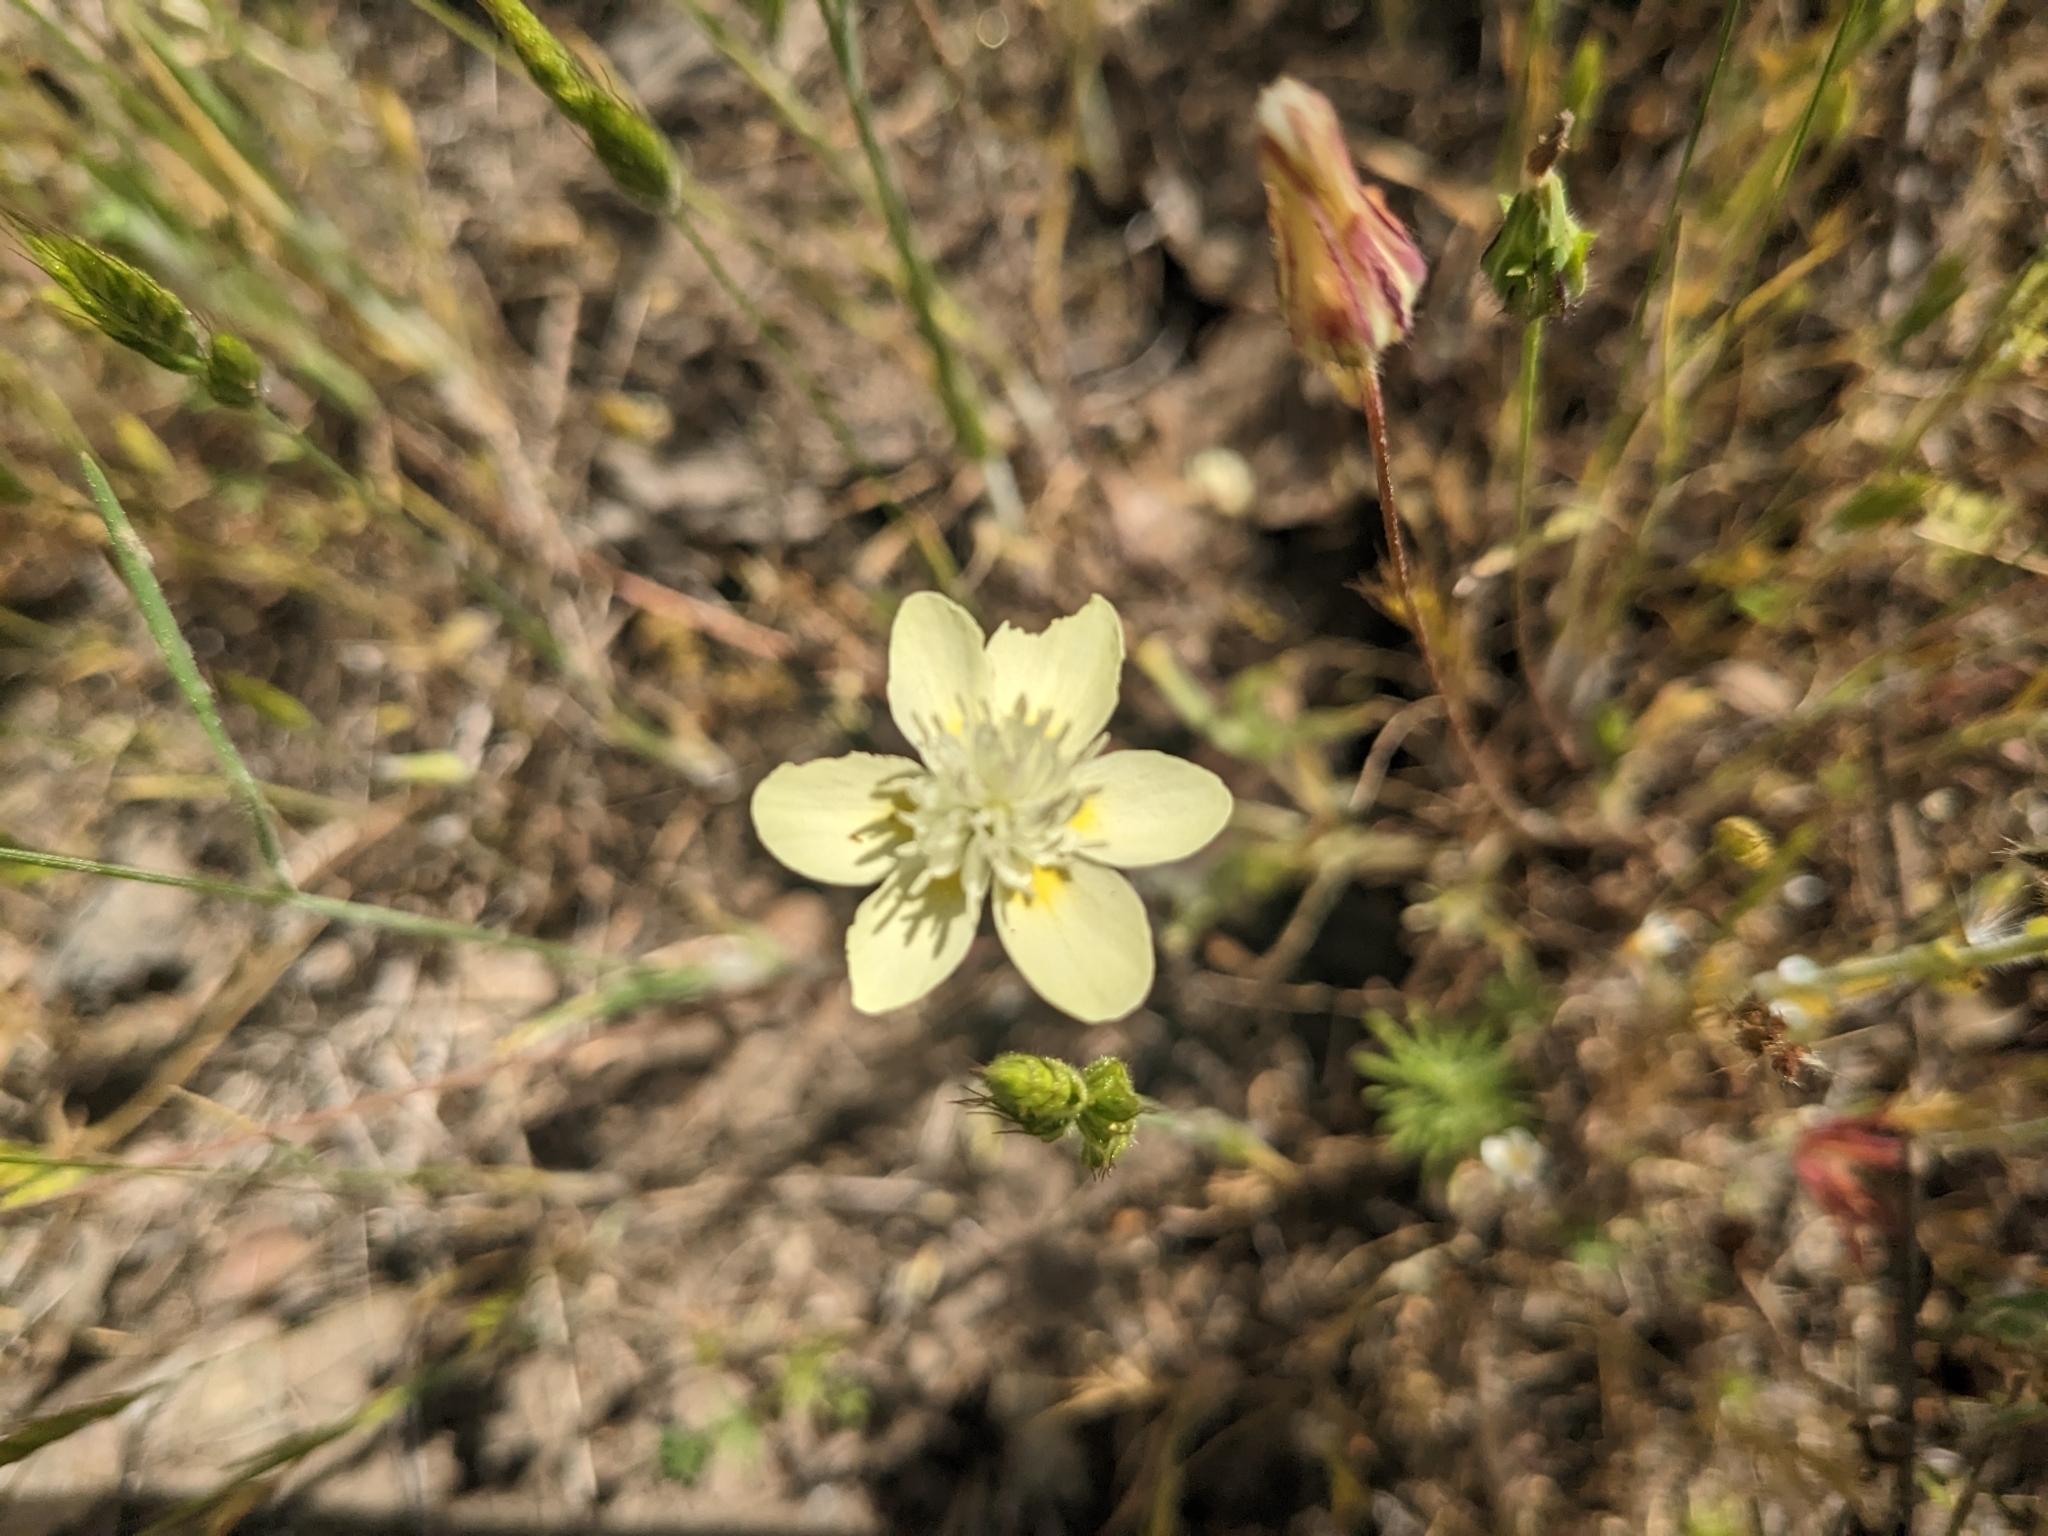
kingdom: Plantae
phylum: Tracheophyta
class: Magnoliopsida
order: Ranunculales
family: Papaveraceae
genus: Platystemon
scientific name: Platystemon californicus
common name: Cream-cups
